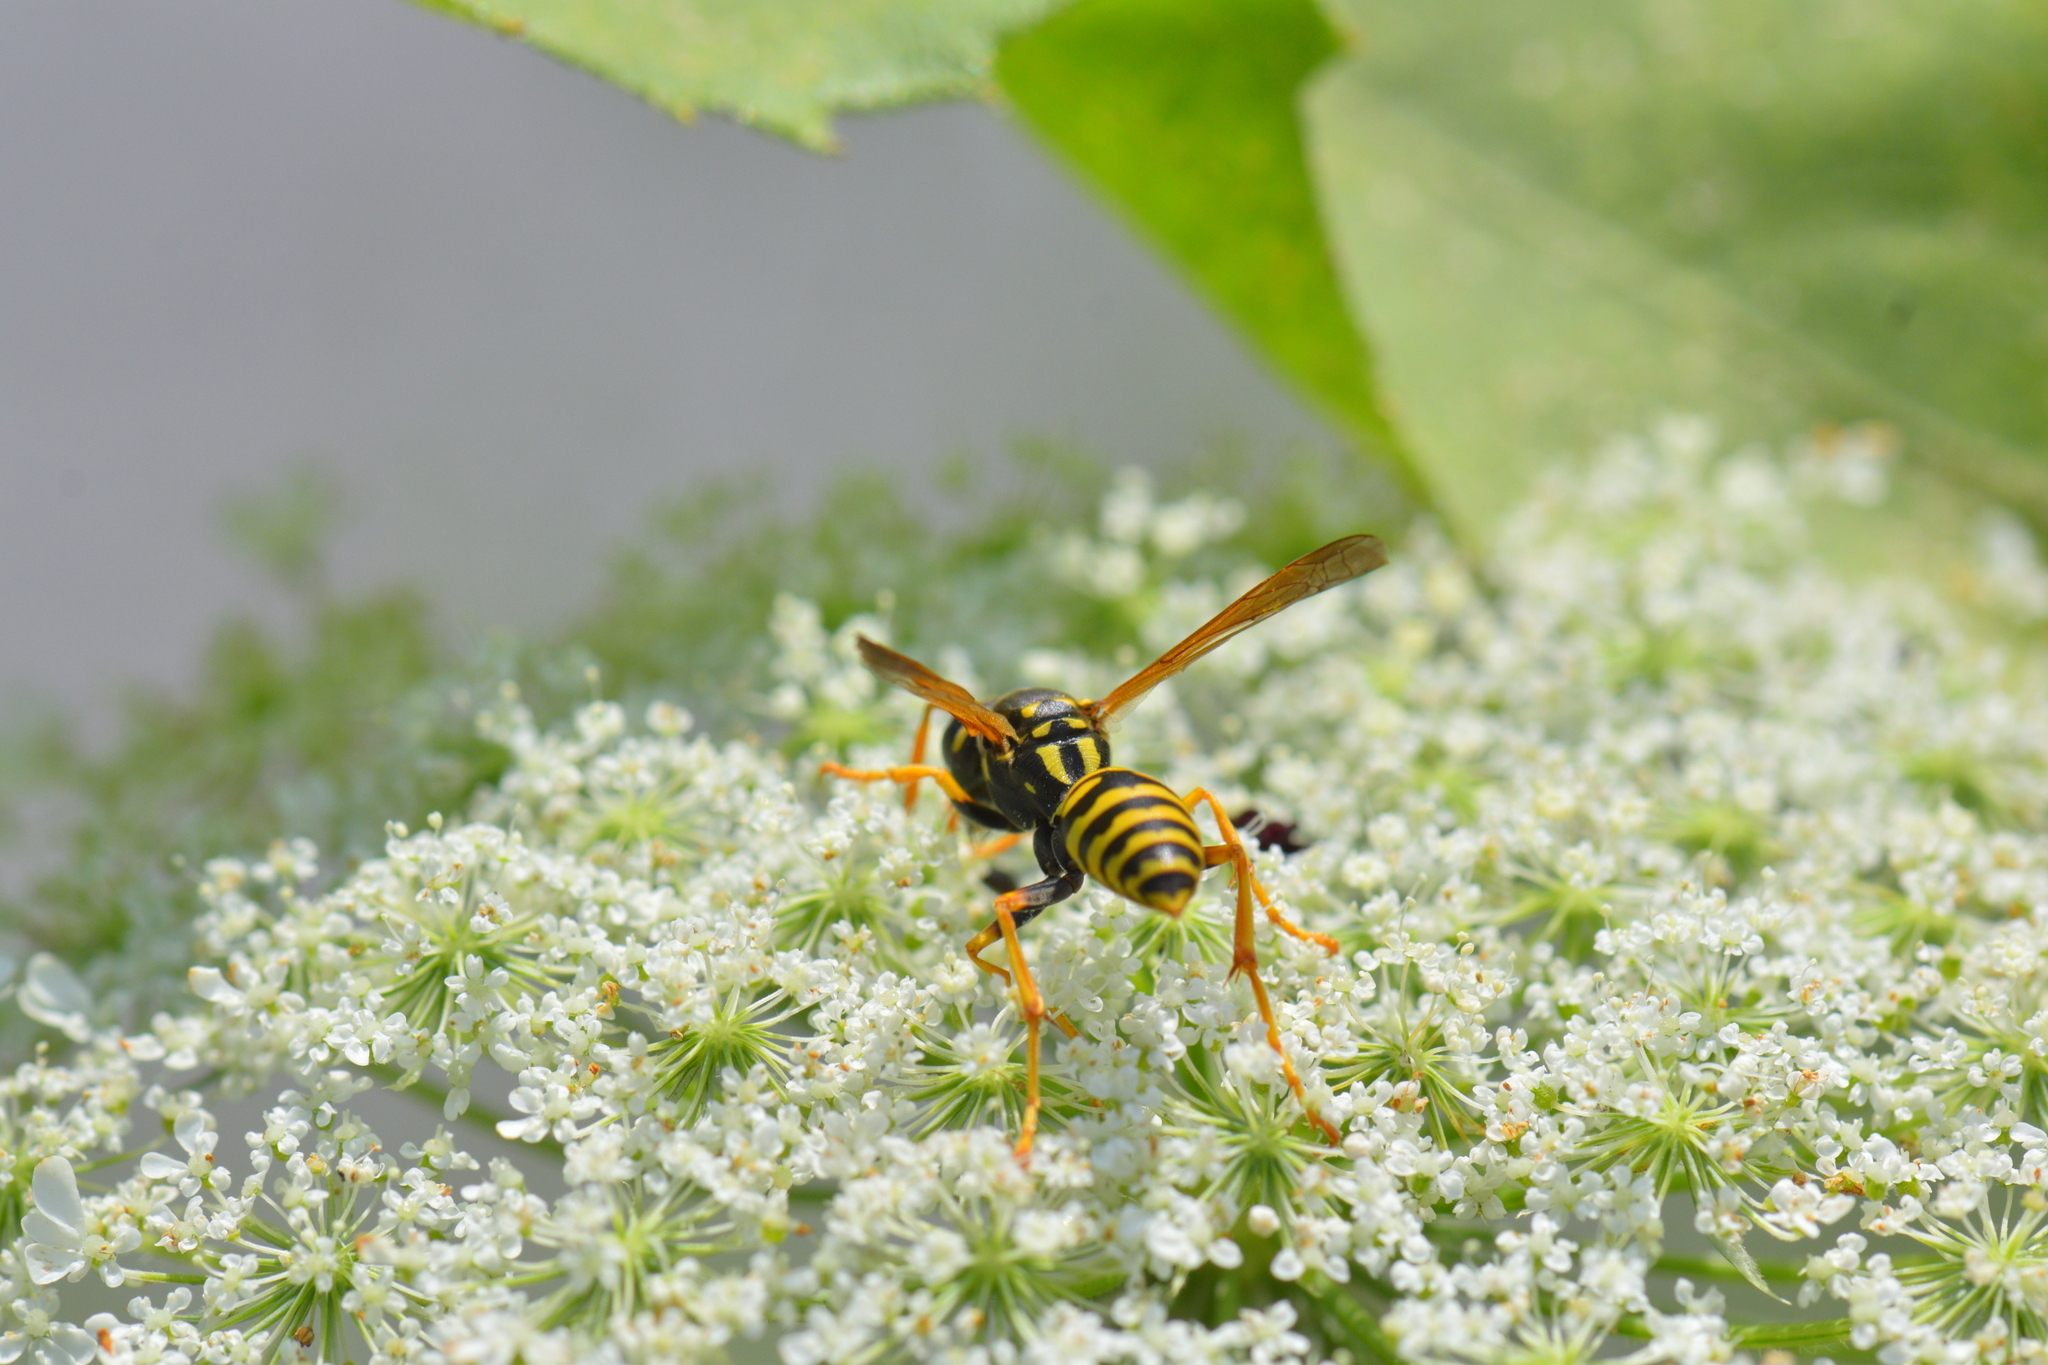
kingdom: Animalia
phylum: Arthropoda
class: Insecta
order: Hymenoptera
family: Eumenidae
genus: Polistes
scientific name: Polistes dominula
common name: Paper wasp
